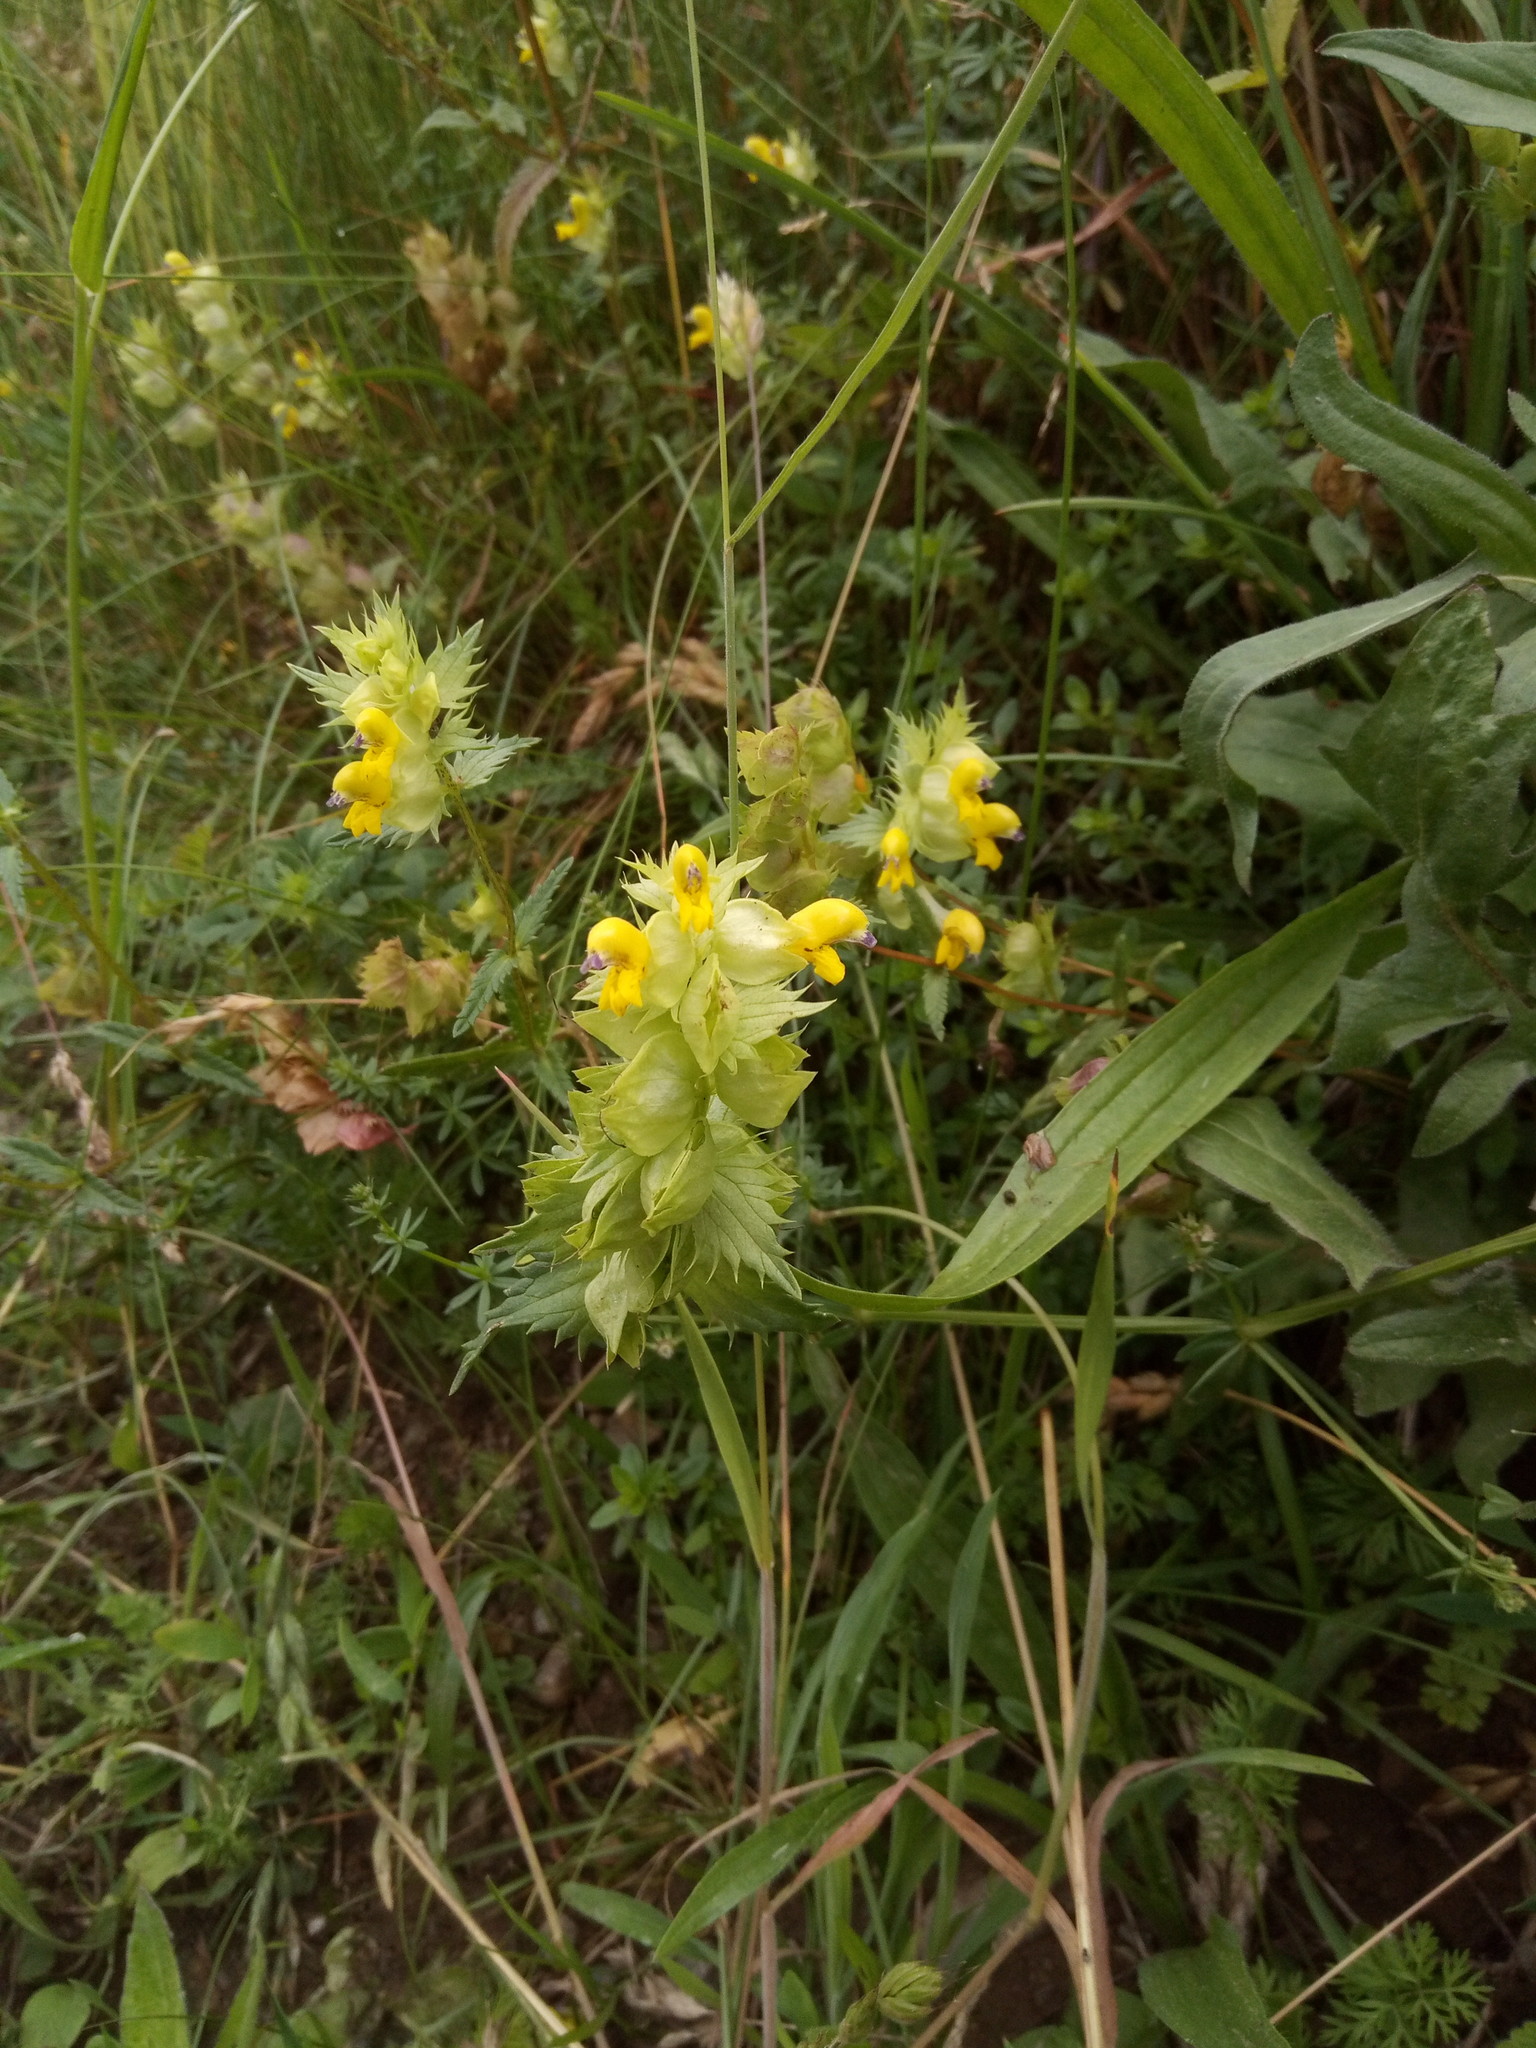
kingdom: Plantae
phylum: Tracheophyta
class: Magnoliopsida
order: Lamiales
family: Orobanchaceae
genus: Rhinanthus
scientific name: Rhinanthus glacialis
